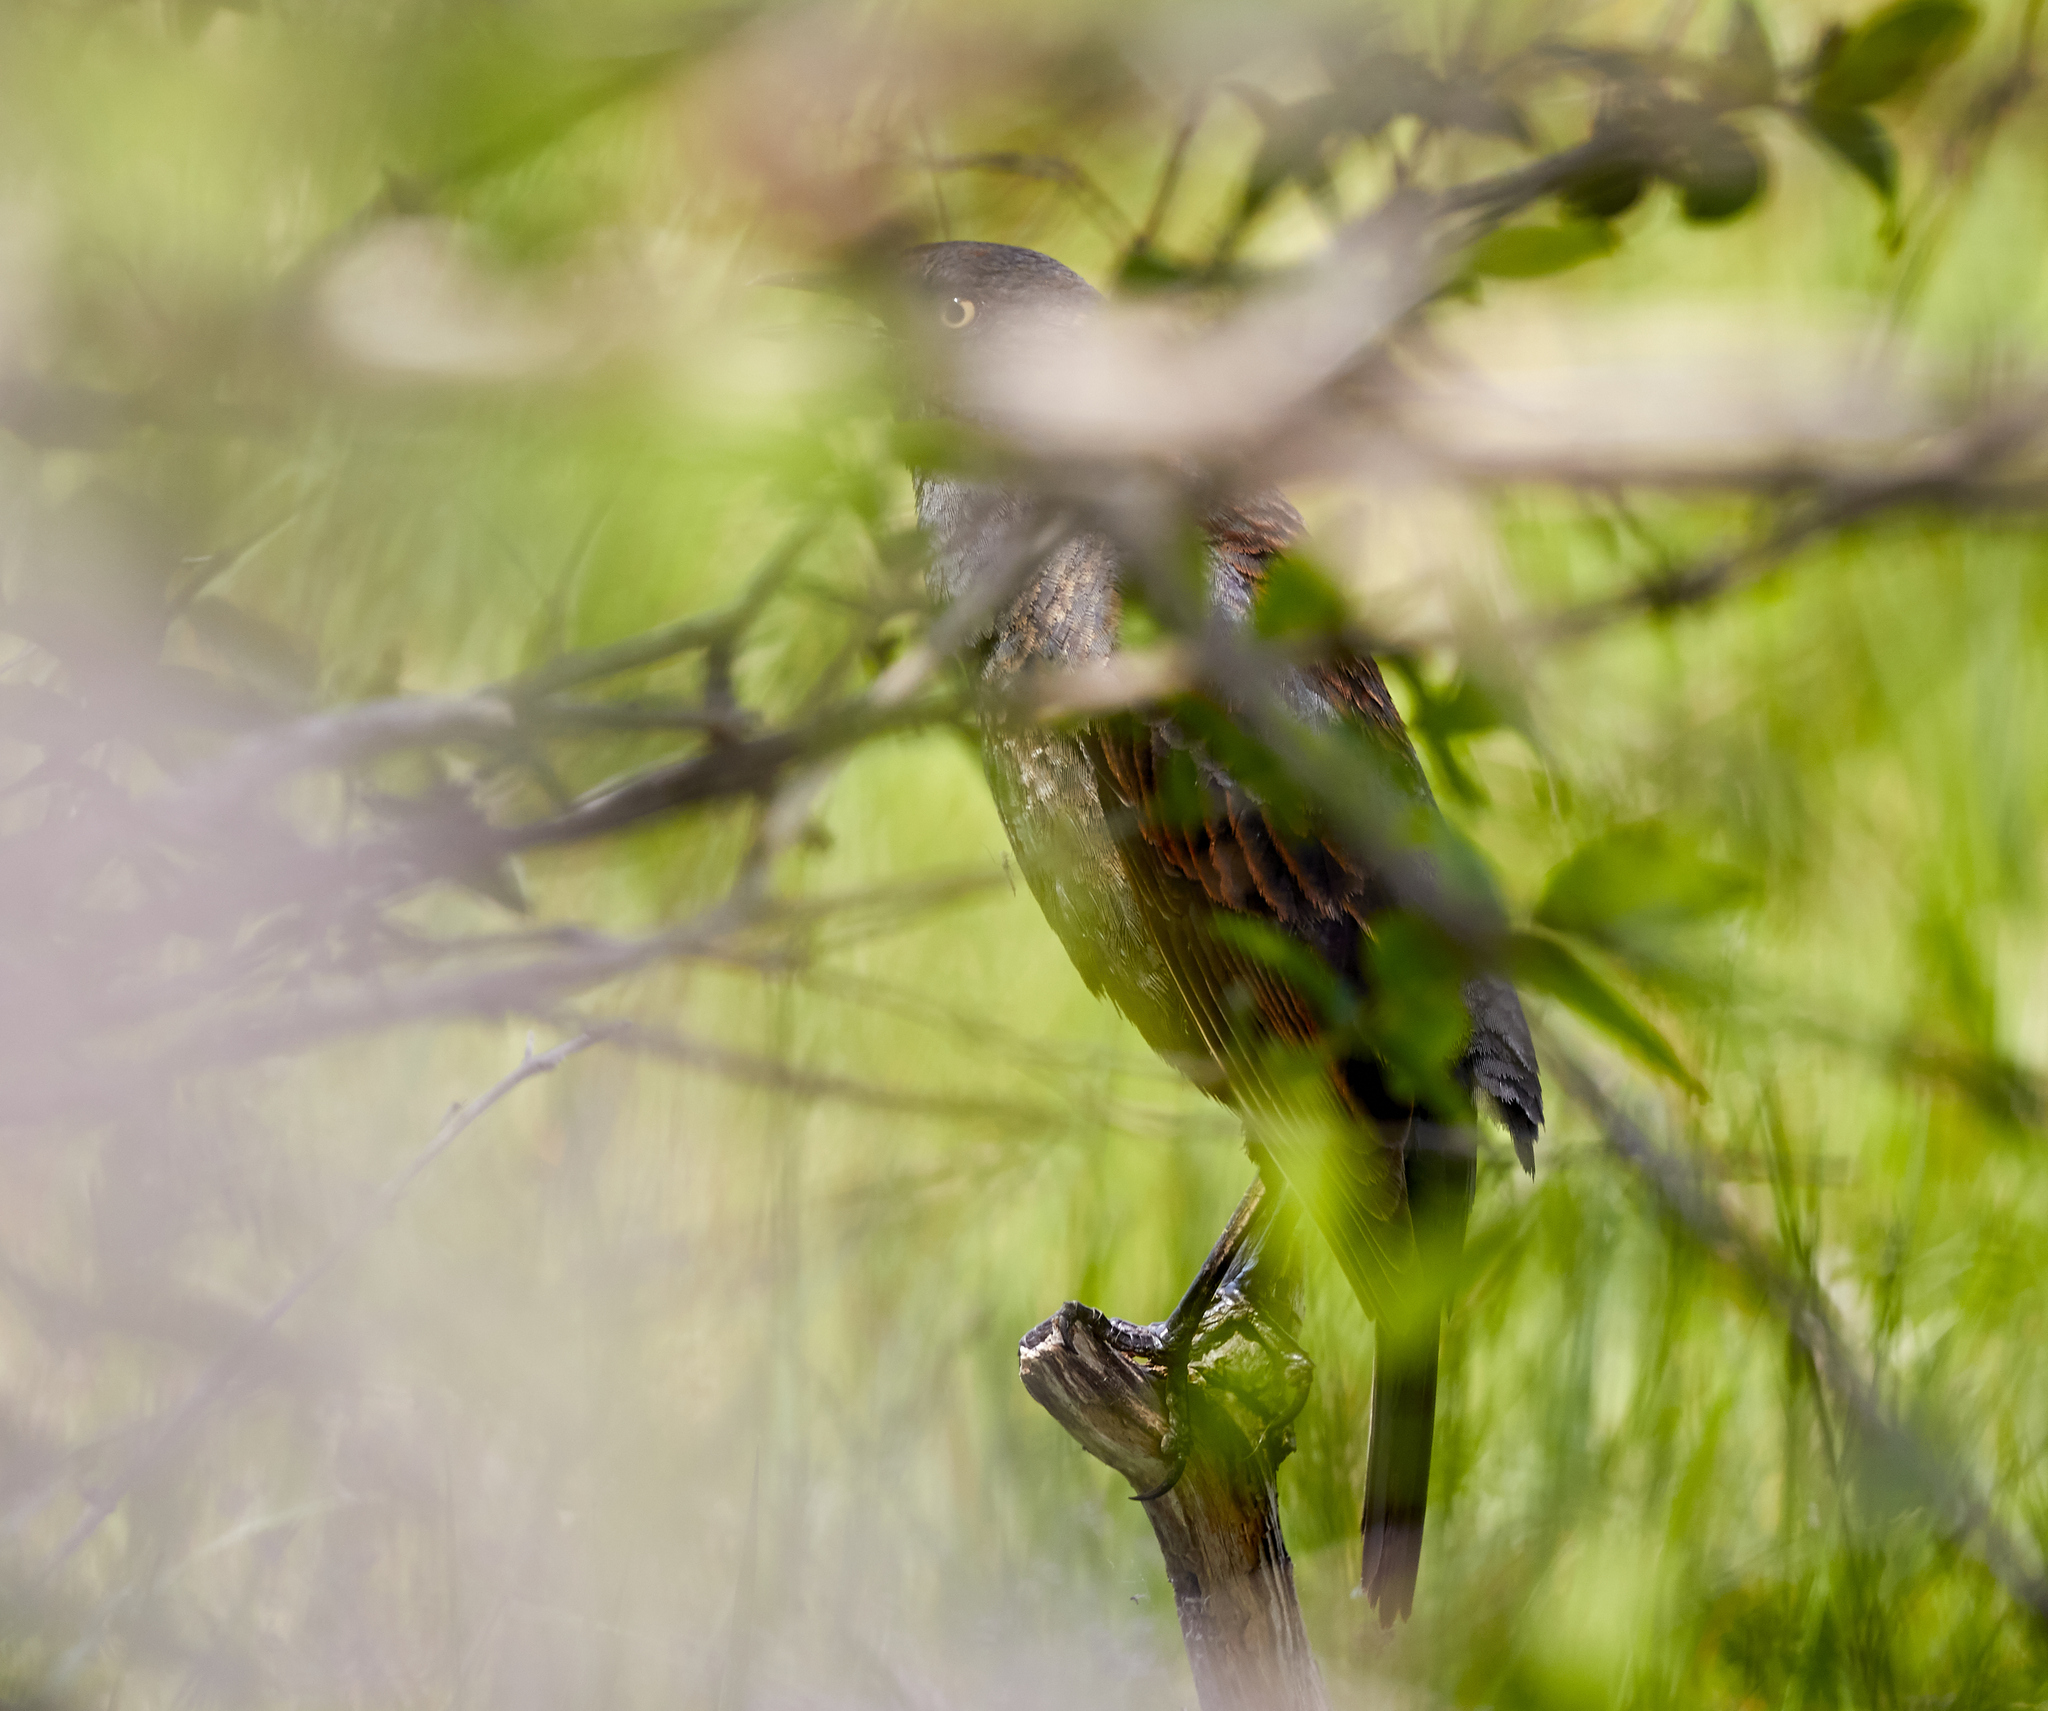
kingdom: Animalia
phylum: Chordata
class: Aves
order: Passeriformes
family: Icteridae
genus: Euphagus
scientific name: Euphagus carolinus
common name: Rusty blackbird
